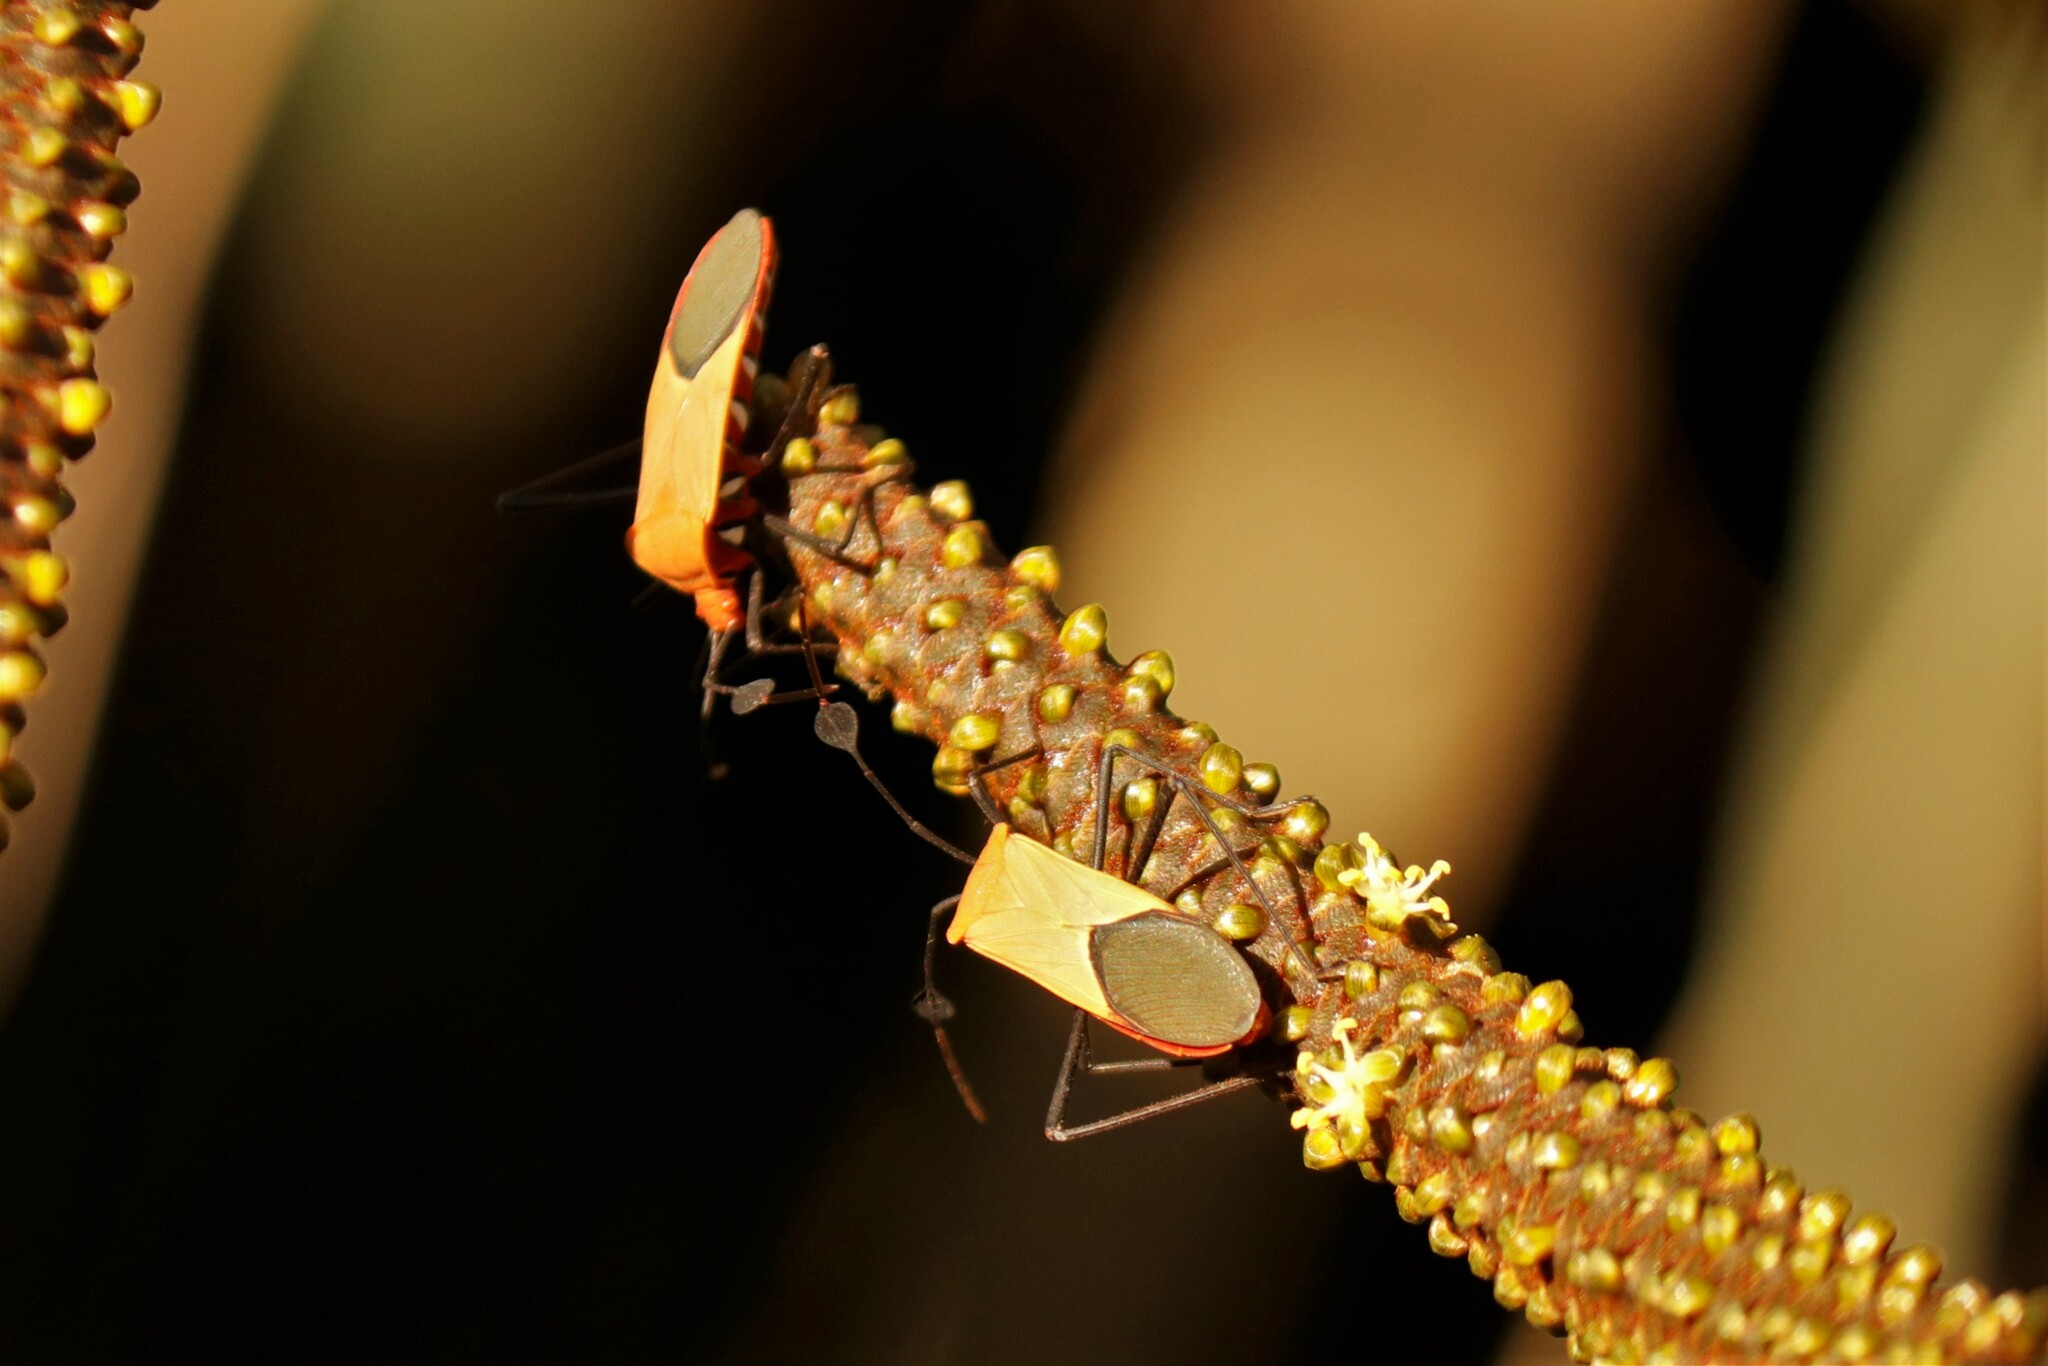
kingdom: Animalia
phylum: Arthropoda
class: Insecta
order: Hemiptera
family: Coreidae
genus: Galaesus
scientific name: Galaesus hasticornis
